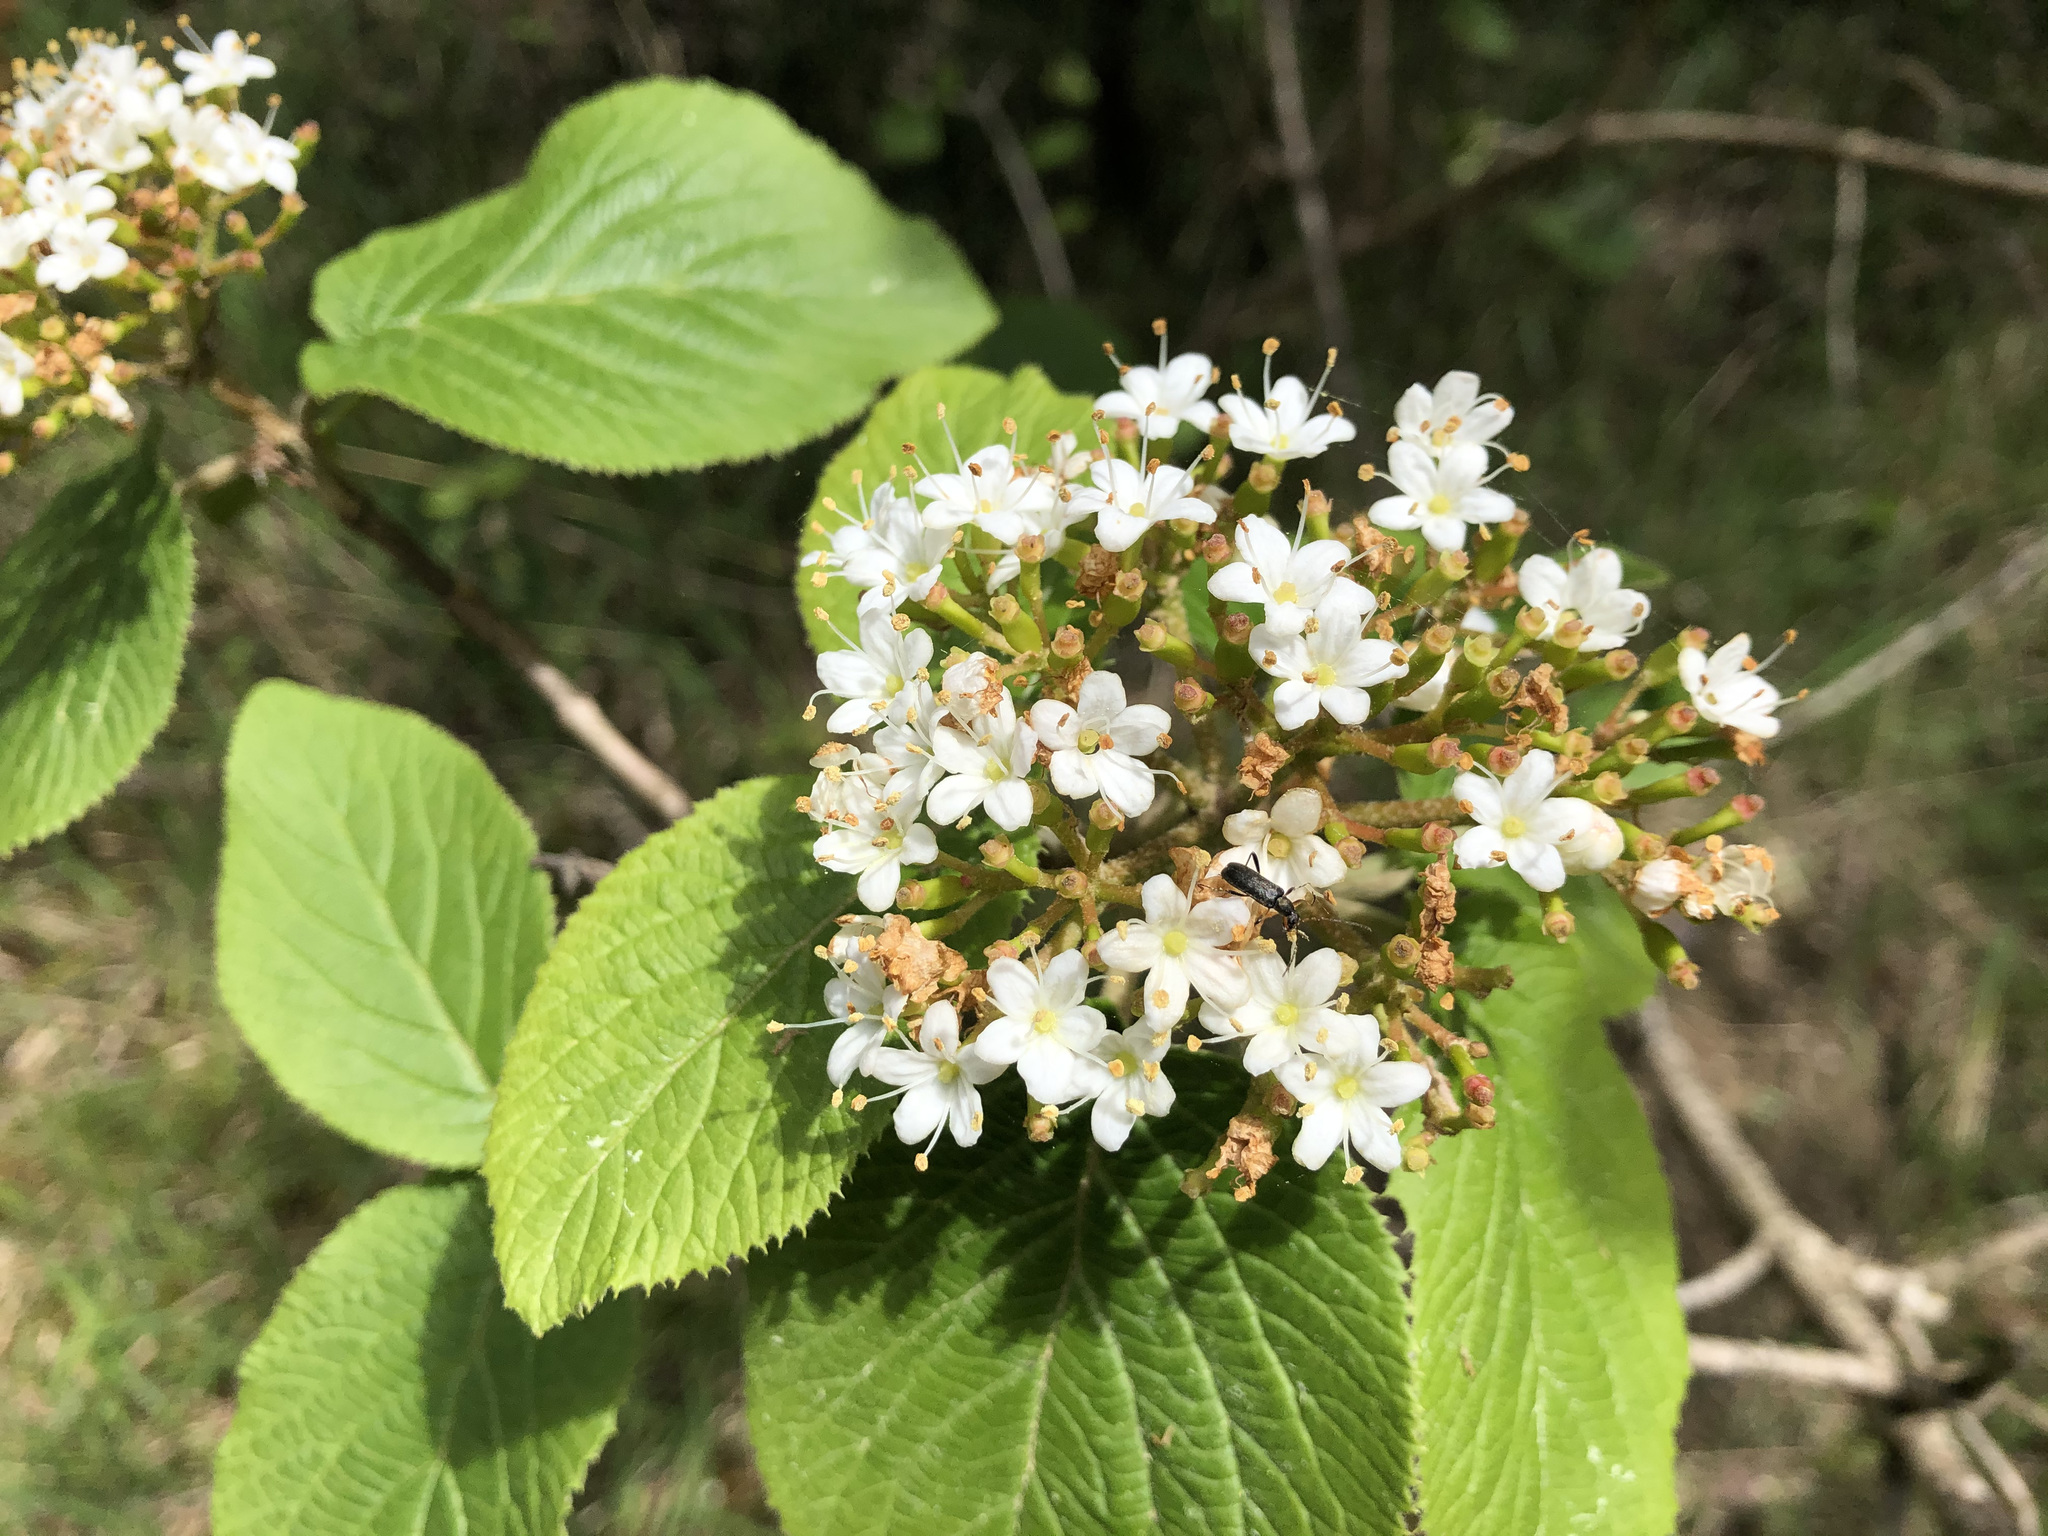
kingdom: Plantae
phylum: Tracheophyta
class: Magnoliopsida
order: Dipsacales
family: Viburnaceae
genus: Viburnum
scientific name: Viburnum lantana
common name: Wayfaring tree
